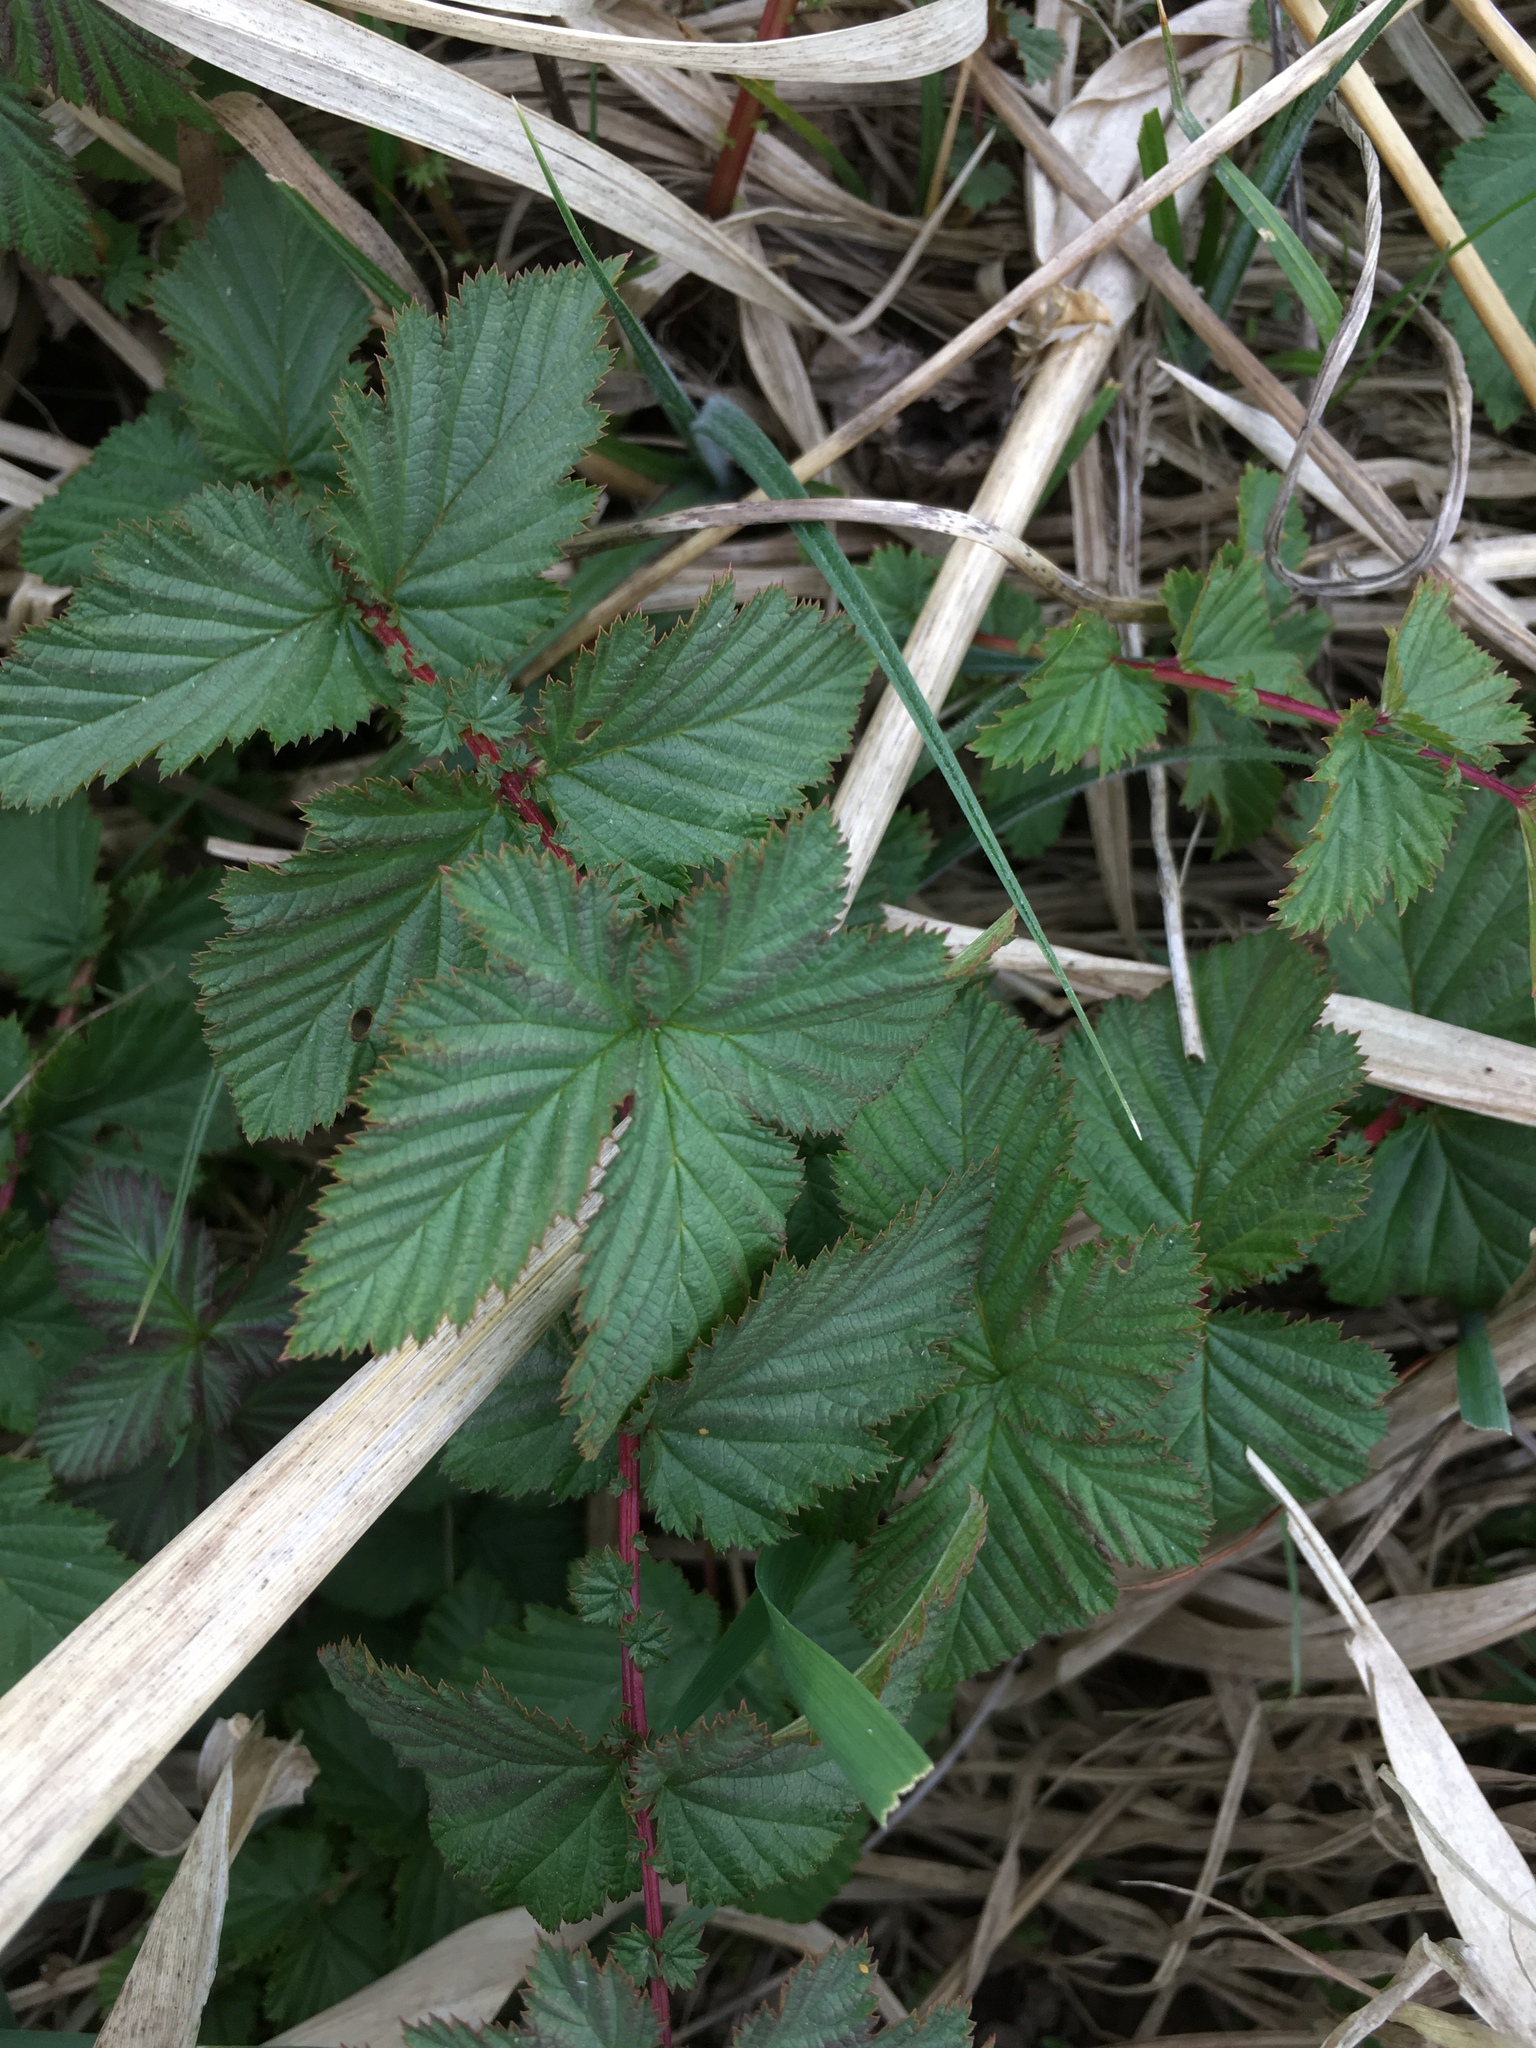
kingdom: Plantae
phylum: Tracheophyta
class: Magnoliopsida
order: Rosales
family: Rosaceae
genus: Filipendula
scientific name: Filipendula ulmaria
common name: Meadowsweet
